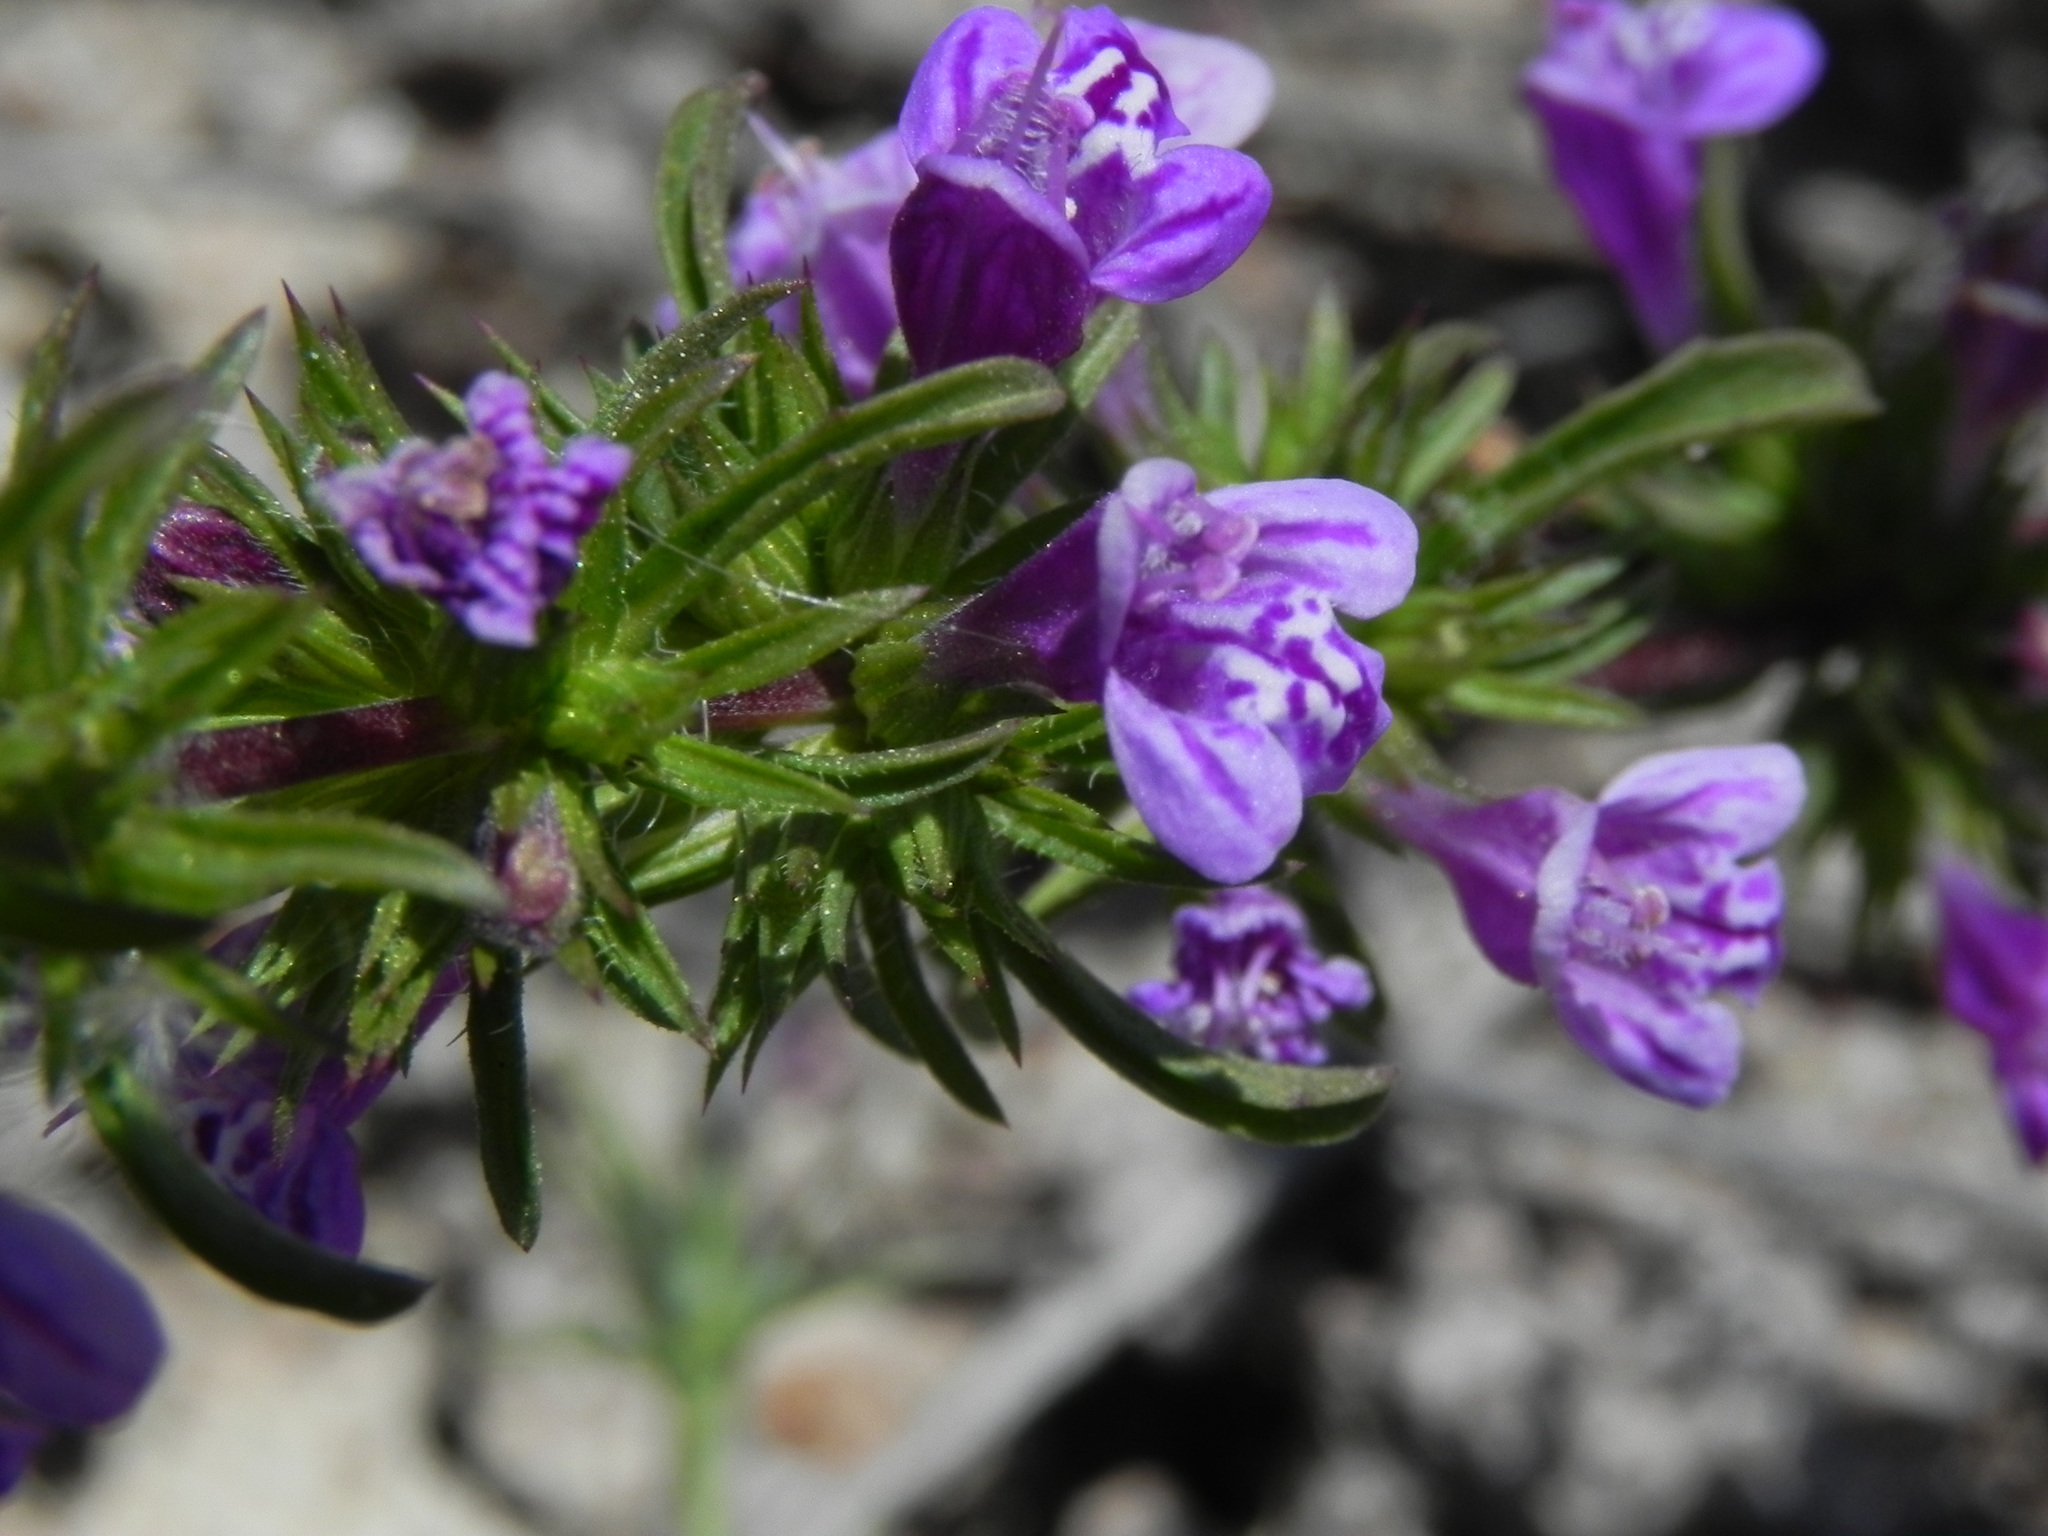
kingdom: Plantae
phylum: Tracheophyta
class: Magnoliopsida
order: Lamiales
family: Lamiaceae
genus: Pogogyne
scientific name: Pogogyne nudiuscula
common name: Otay mesa-mint
